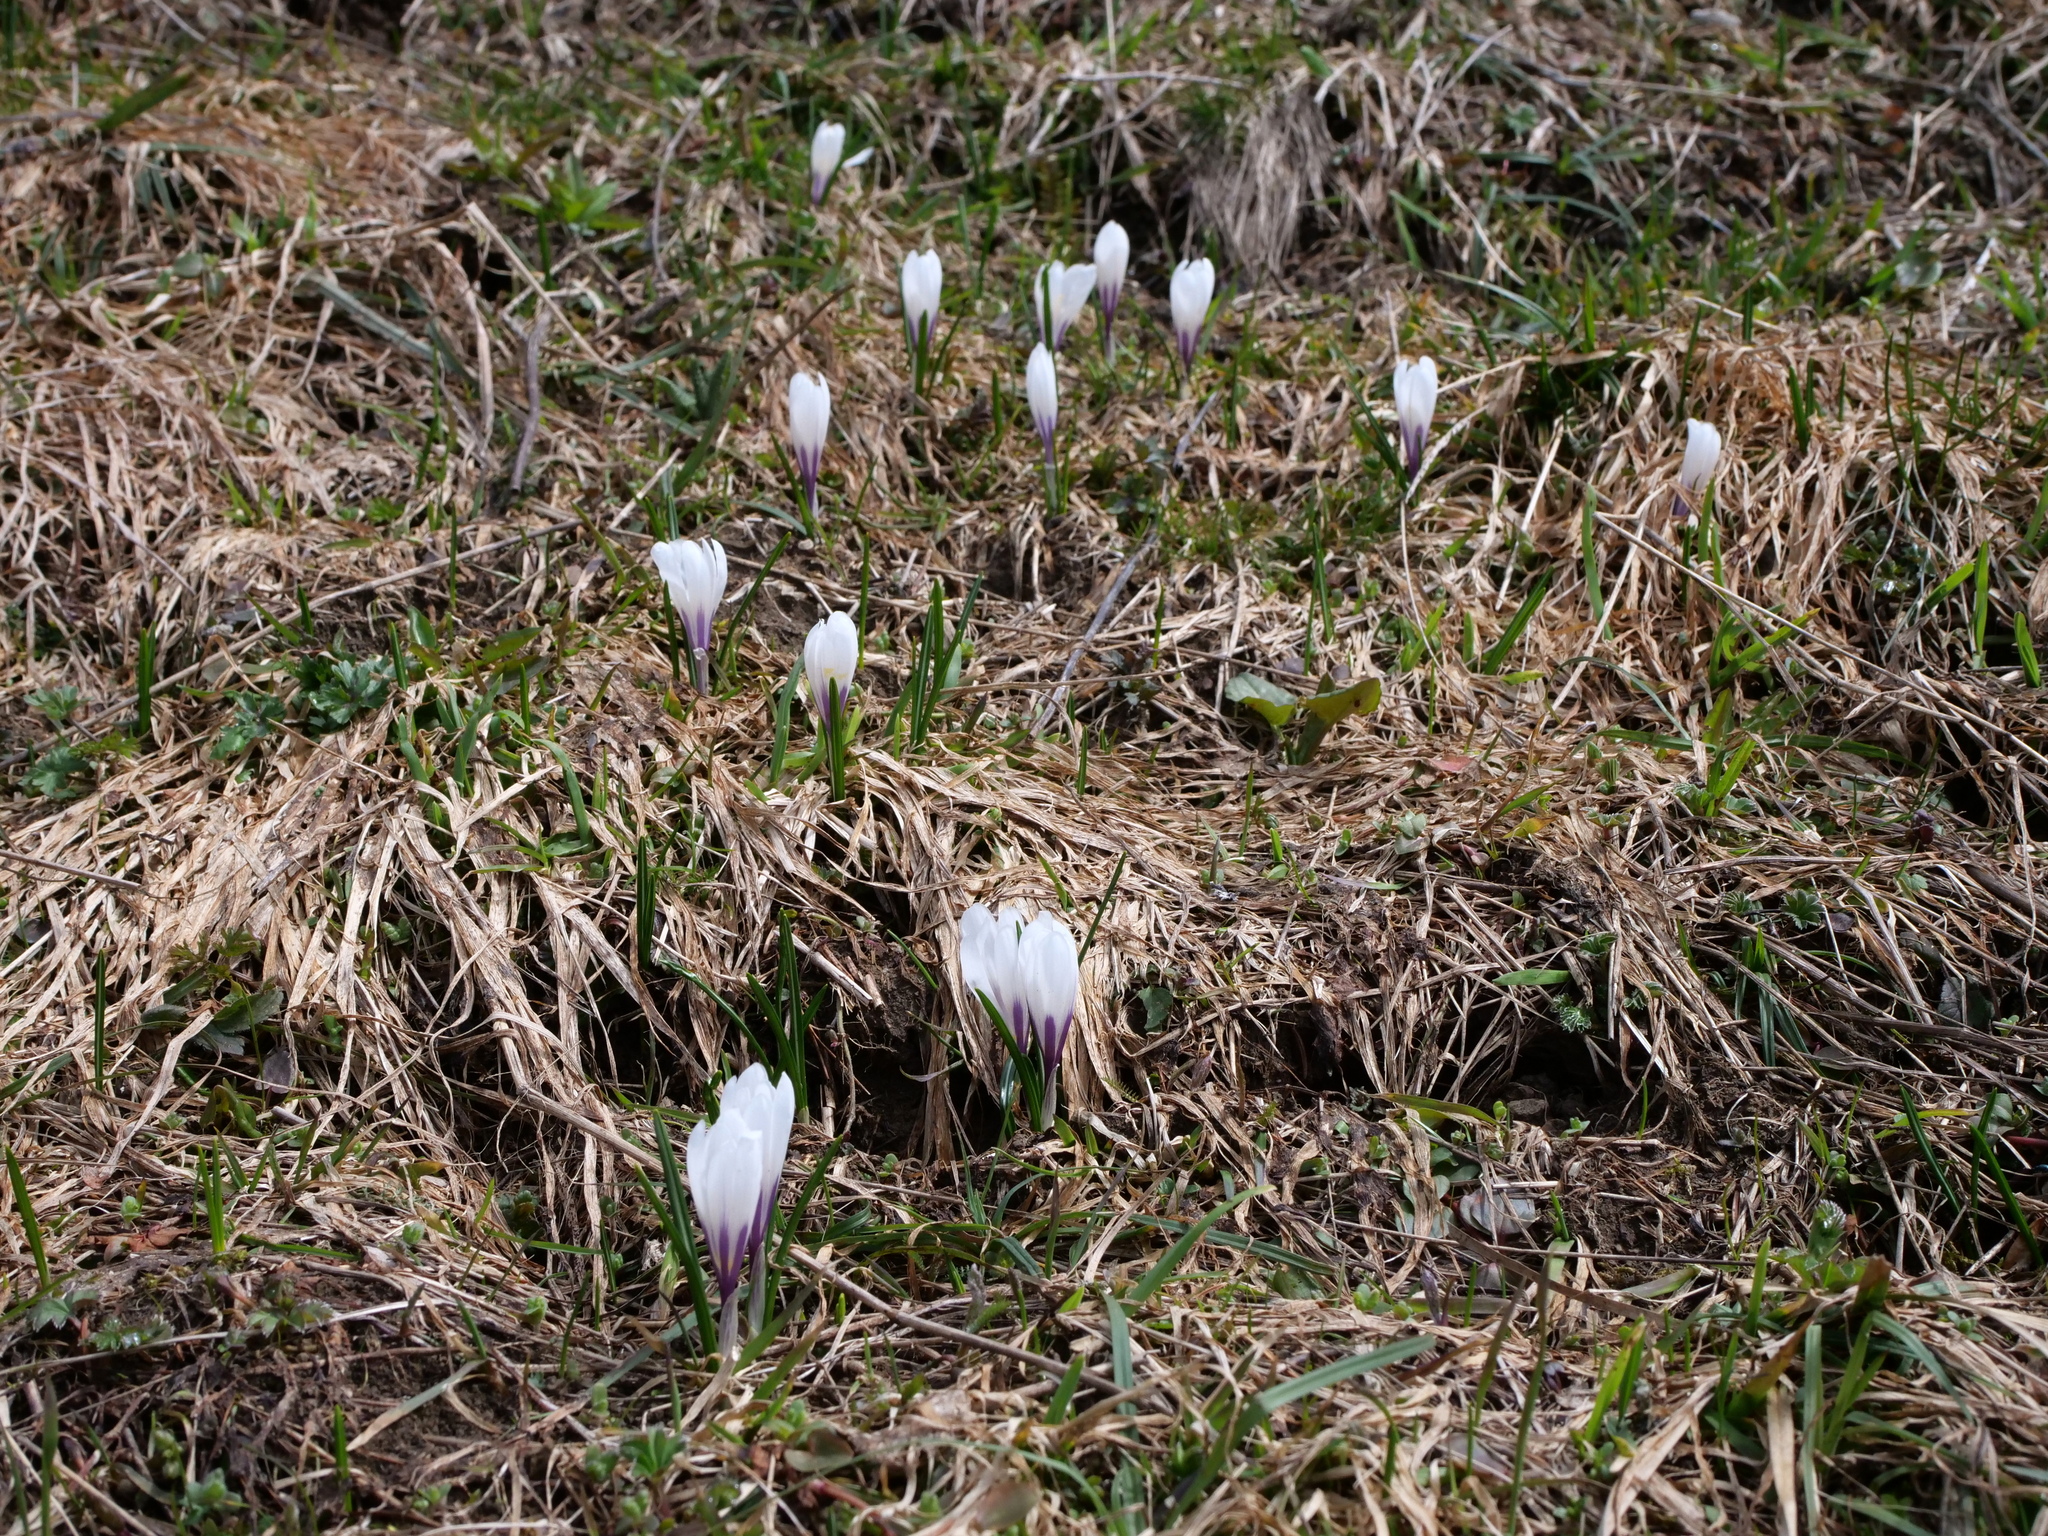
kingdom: Plantae
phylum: Tracheophyta
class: Liliopsida
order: Asparagales
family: Iridaceae
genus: Crocus
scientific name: Crocus vernus
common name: Spring crocus
